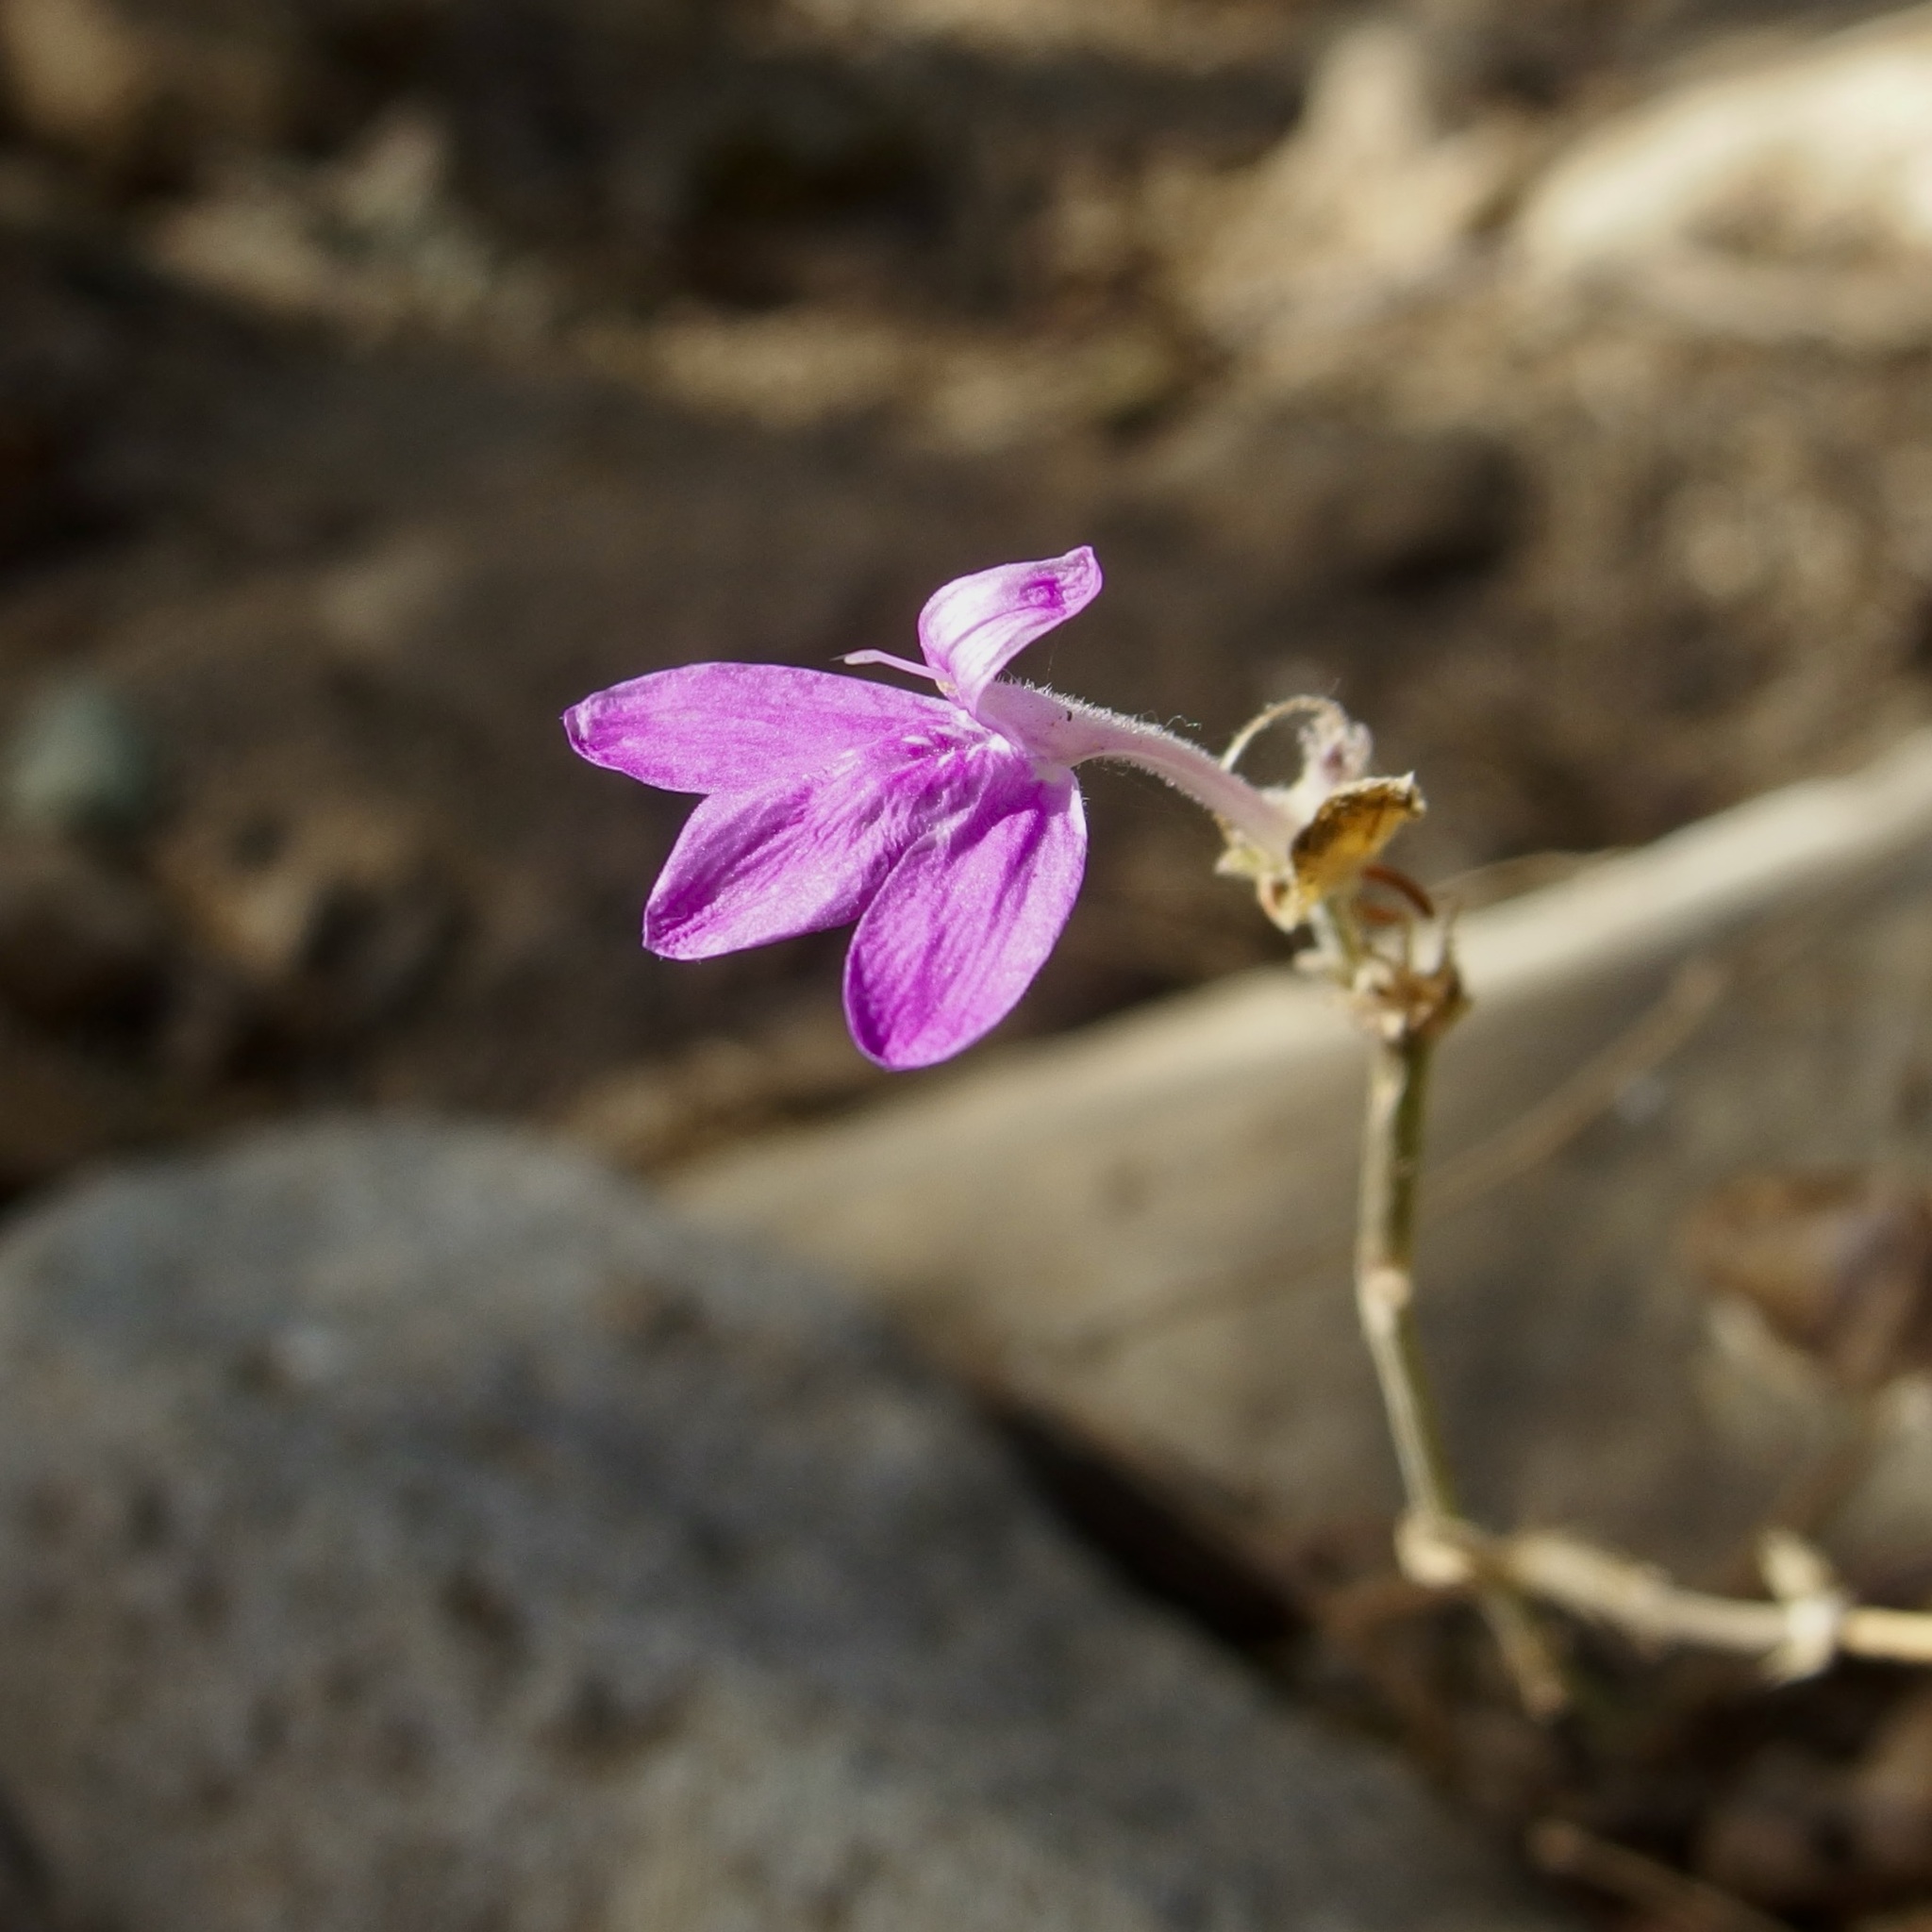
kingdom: Plantae
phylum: Tracheophyta
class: Magnoliopsida
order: Lamiales
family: Acanthaceae
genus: Dianthera
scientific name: Dianthera incerta
